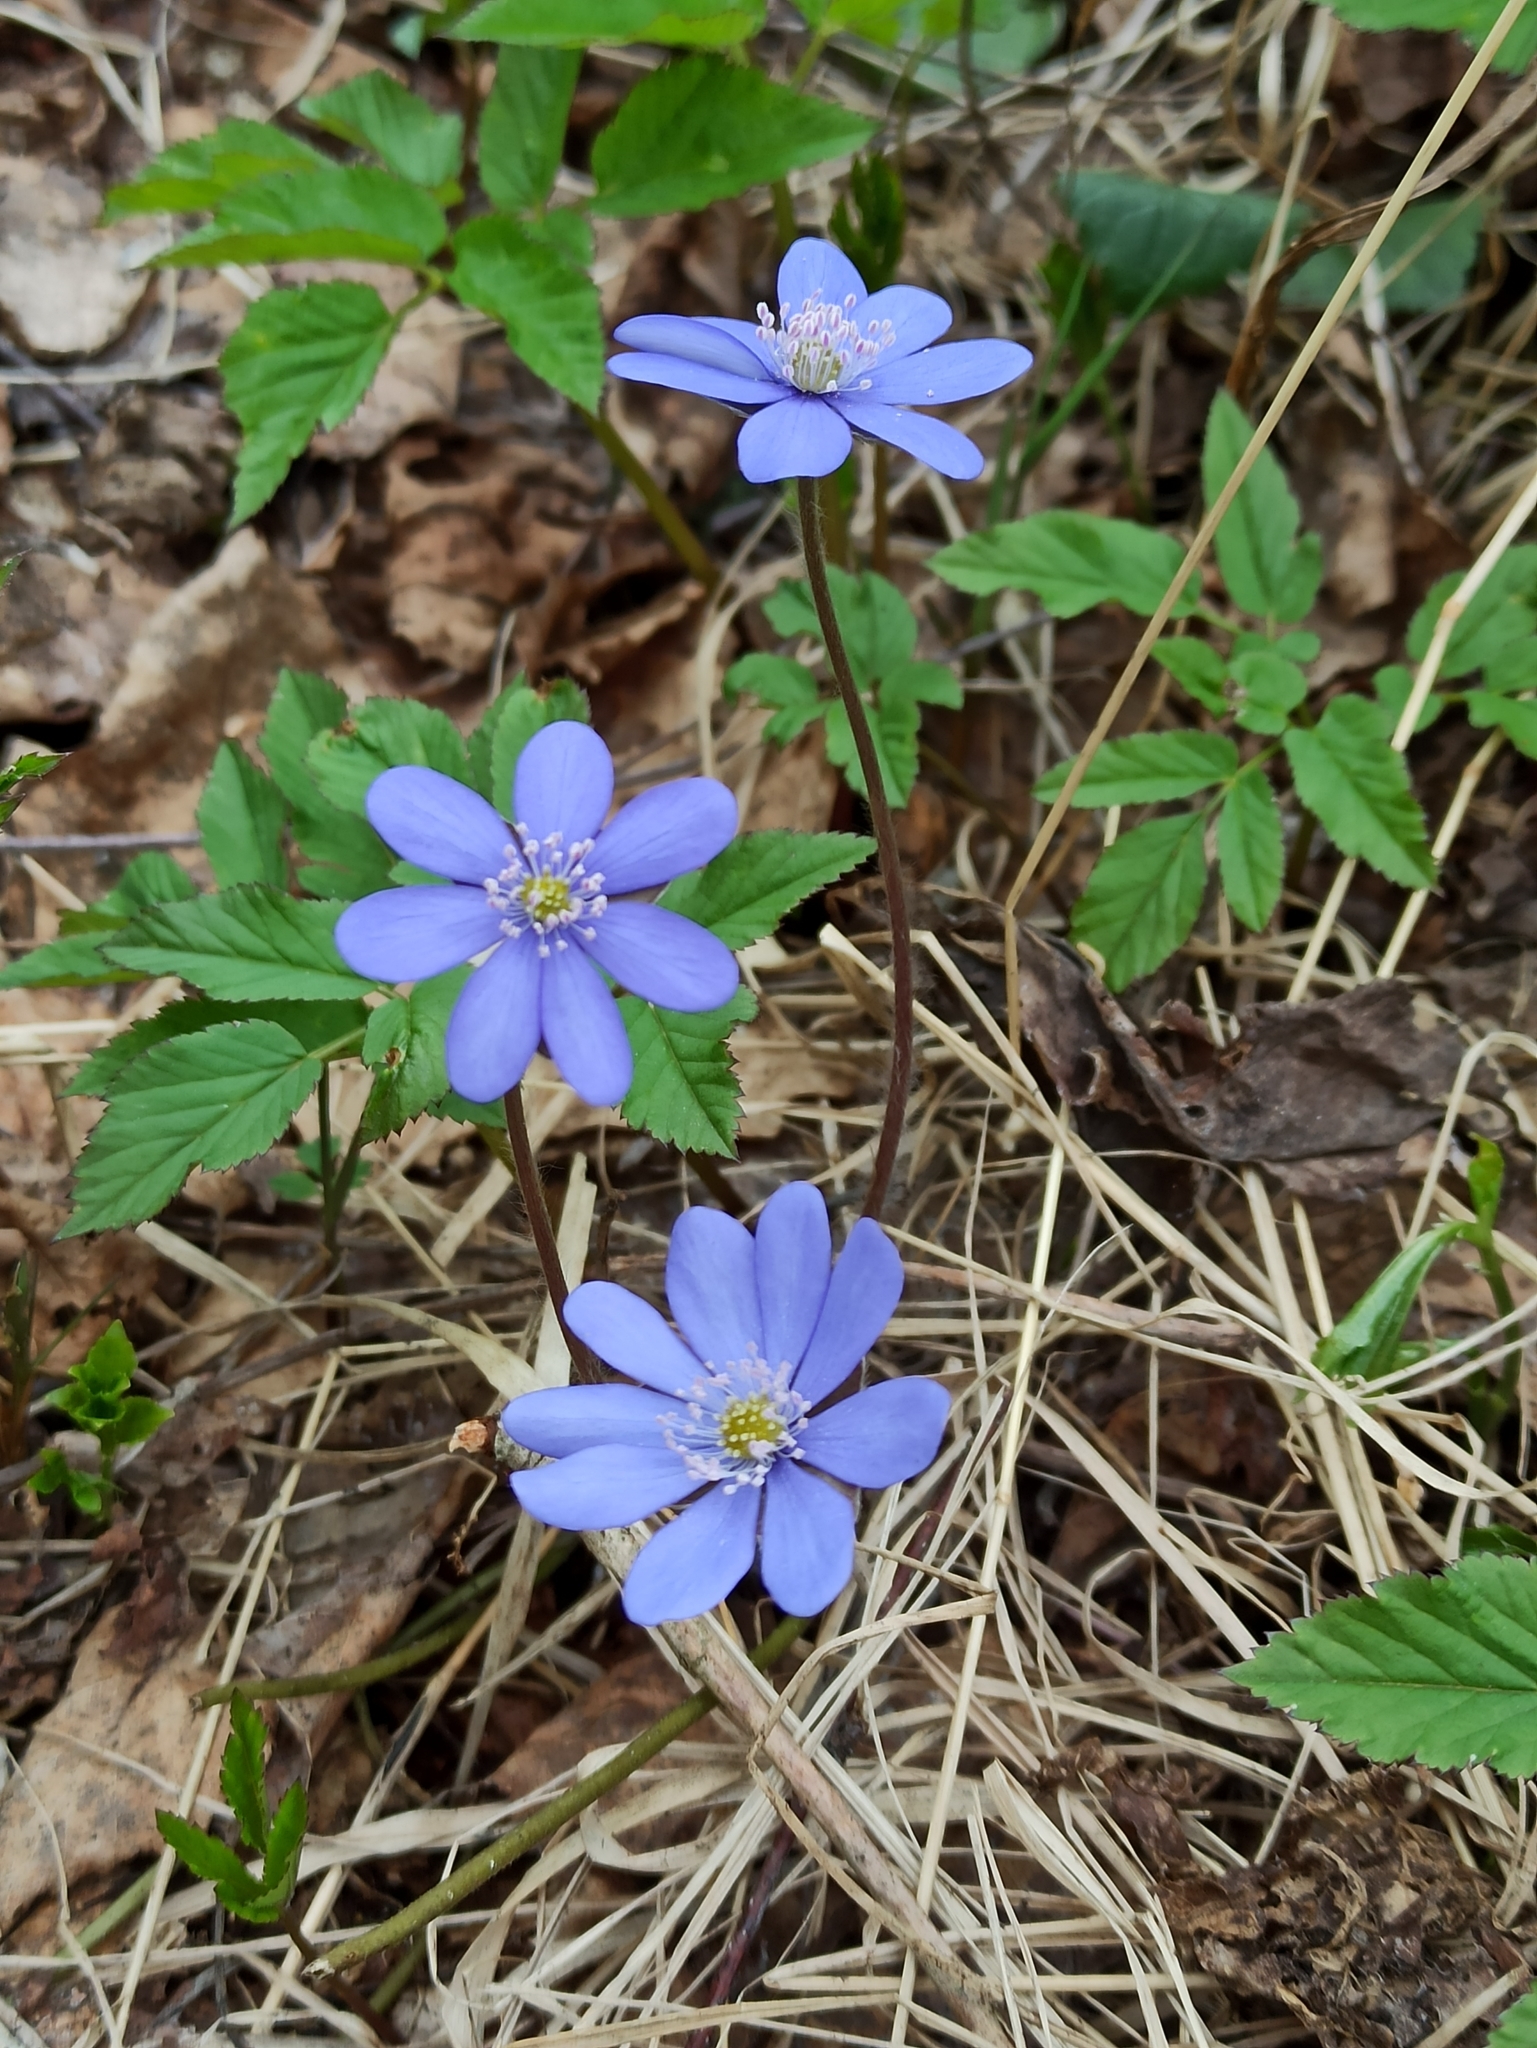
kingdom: Plantae
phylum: Tracheophyta
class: Magnoliopsida
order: Ranunculales
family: Ranunculaceae
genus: Hepatica
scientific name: Hepatica nobilis
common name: Liverleaf
